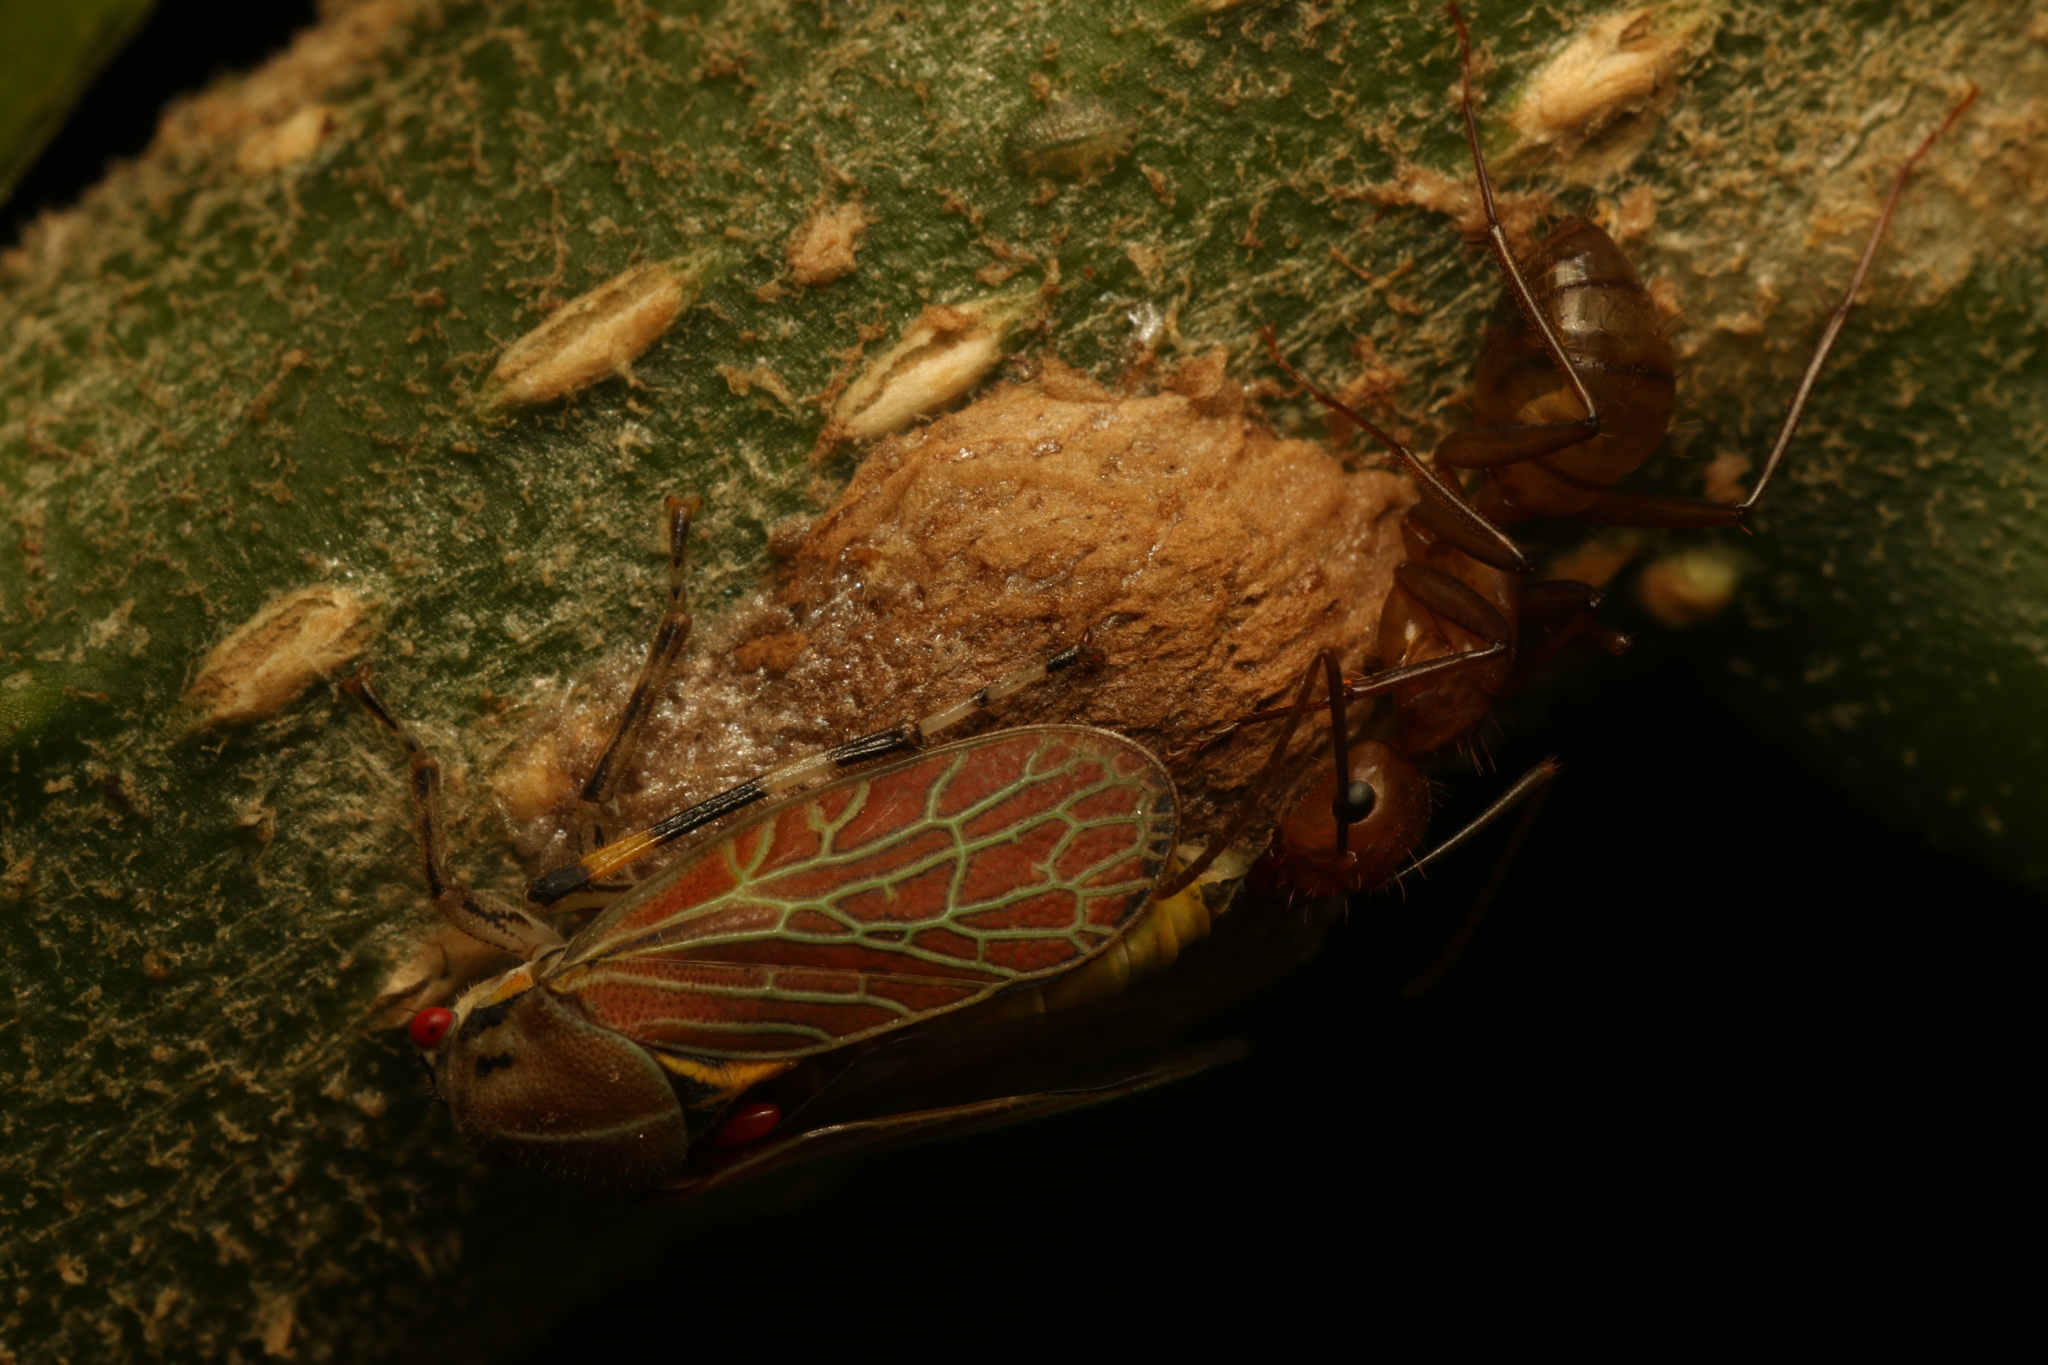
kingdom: Animalia
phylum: Arthropoda
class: Insecta
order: Hemiptera
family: Aetalionidae
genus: Aetalion
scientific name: Aetalion reticulatum
